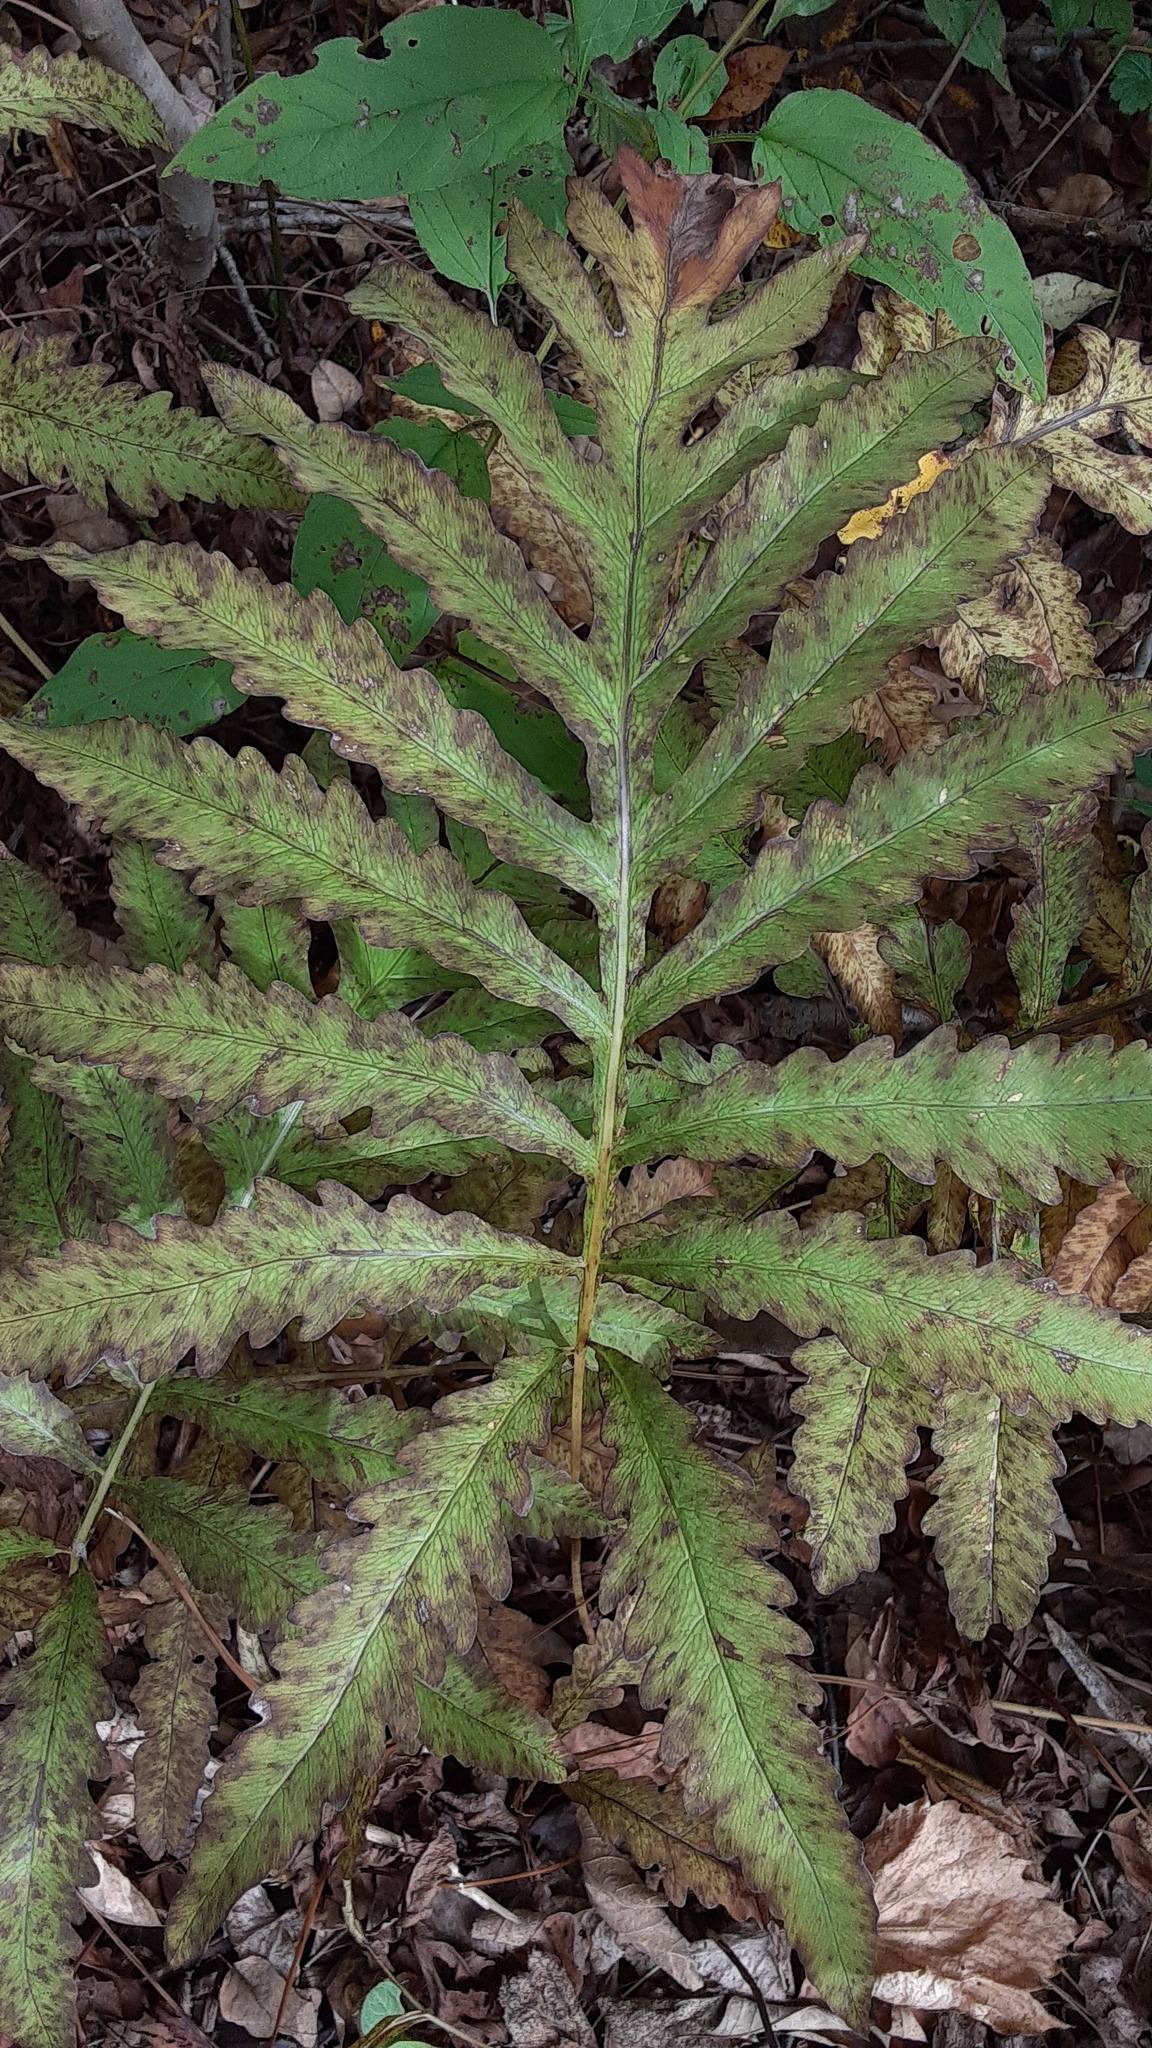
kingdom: Plantae
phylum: Tracheophyta
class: Polypodiopsida
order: Polypodiales
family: Onocleaceae
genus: Onoclea
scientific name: Onoclea sensibilis
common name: Sensitive fern
